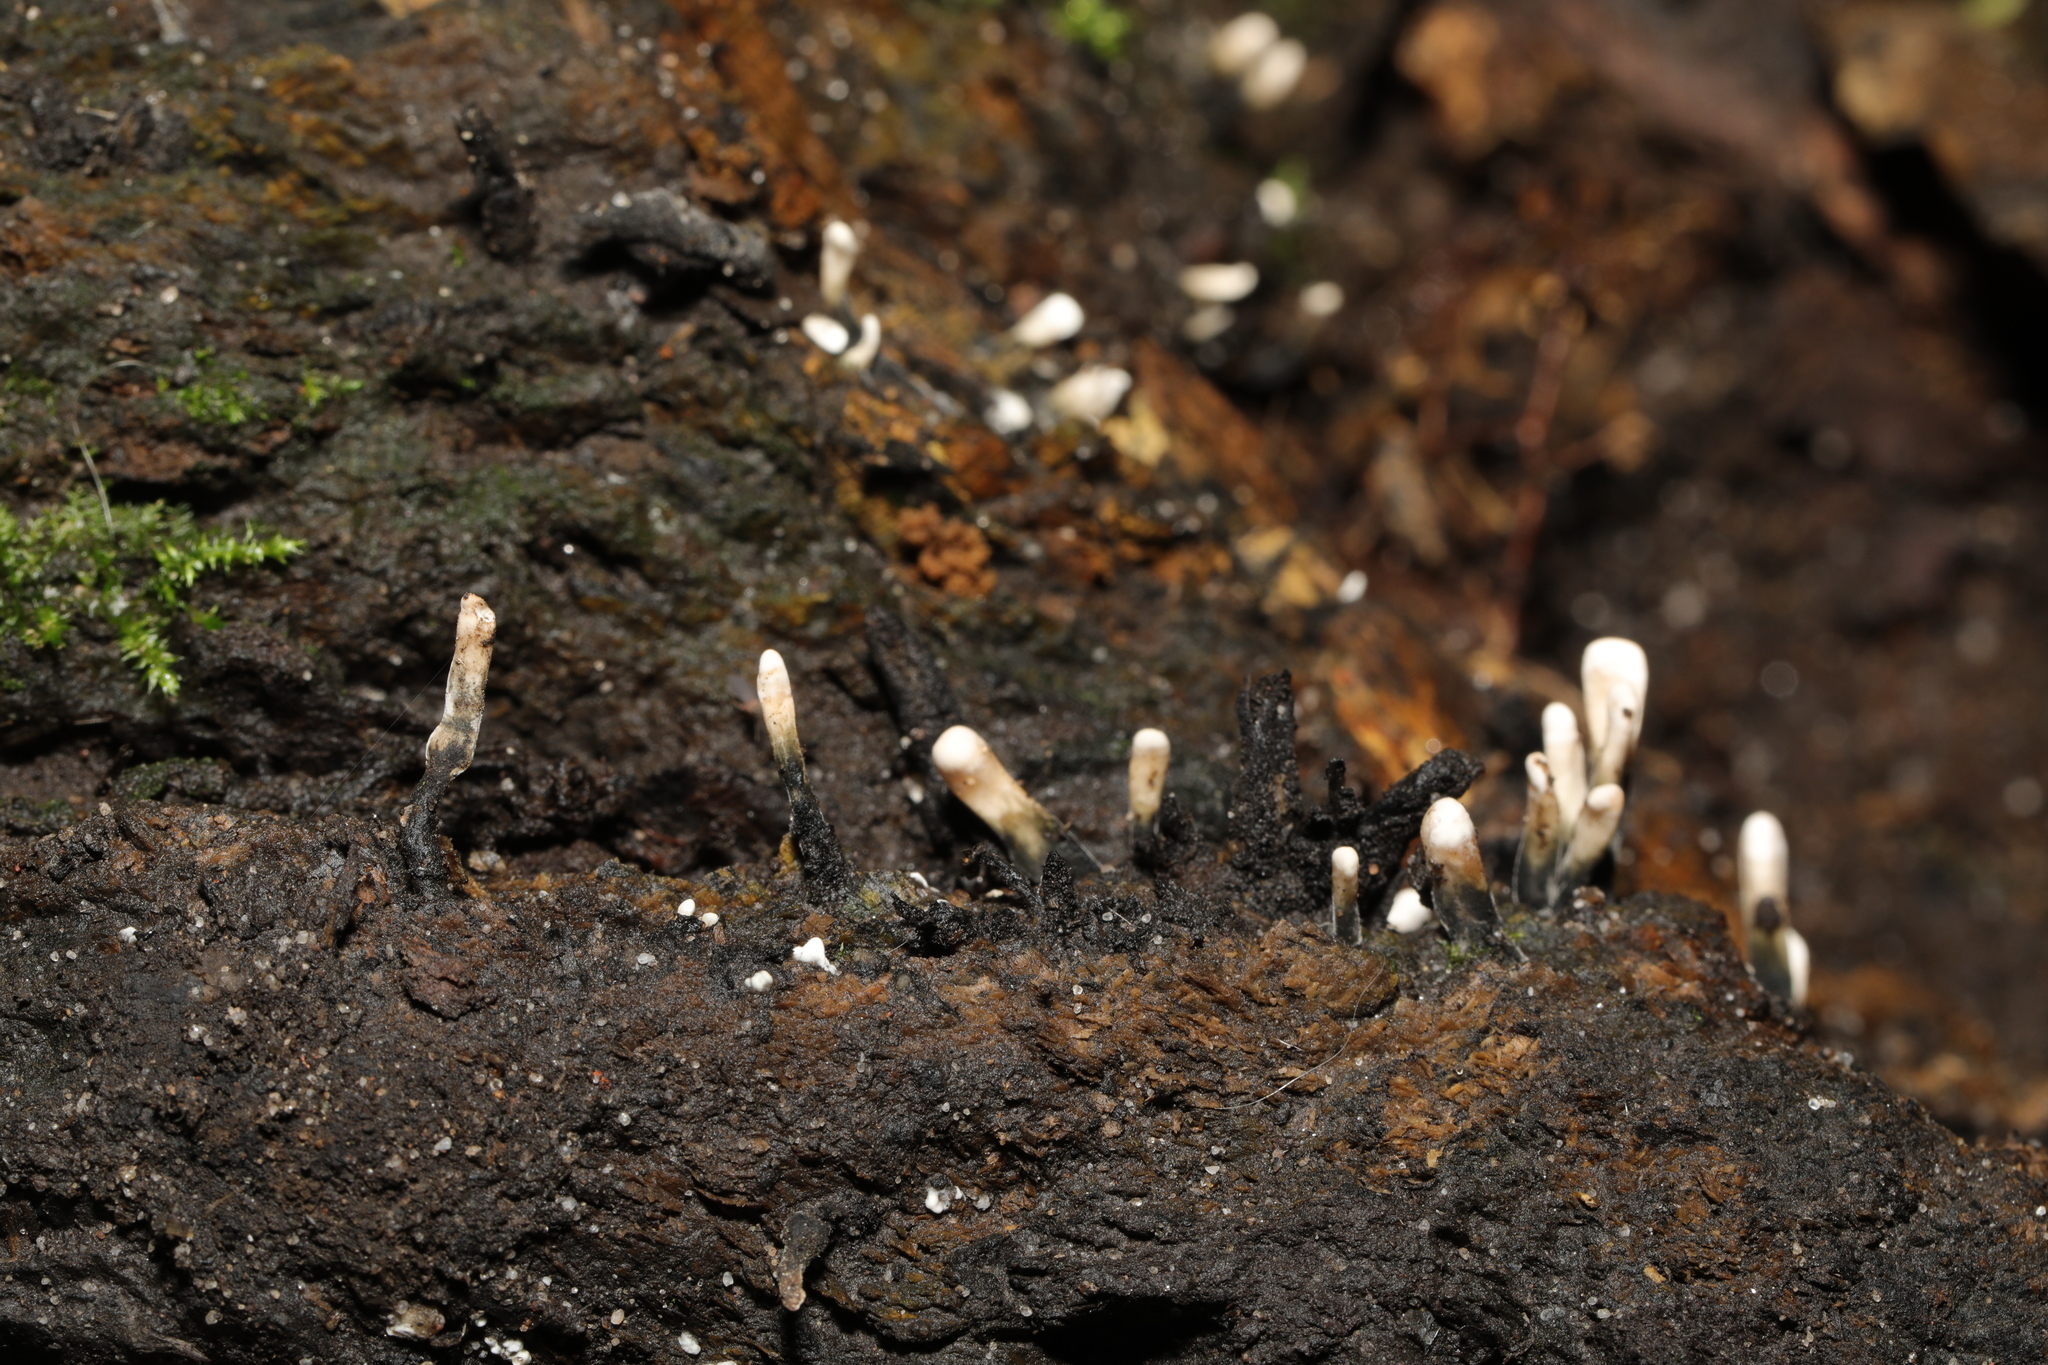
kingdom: Fungi
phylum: Ascomycota
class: Sordariomycetes
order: Xylariales
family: Xylariaceae
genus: Xylaria
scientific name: Xylaria hypoxylon
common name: Candle-snuff fungus
